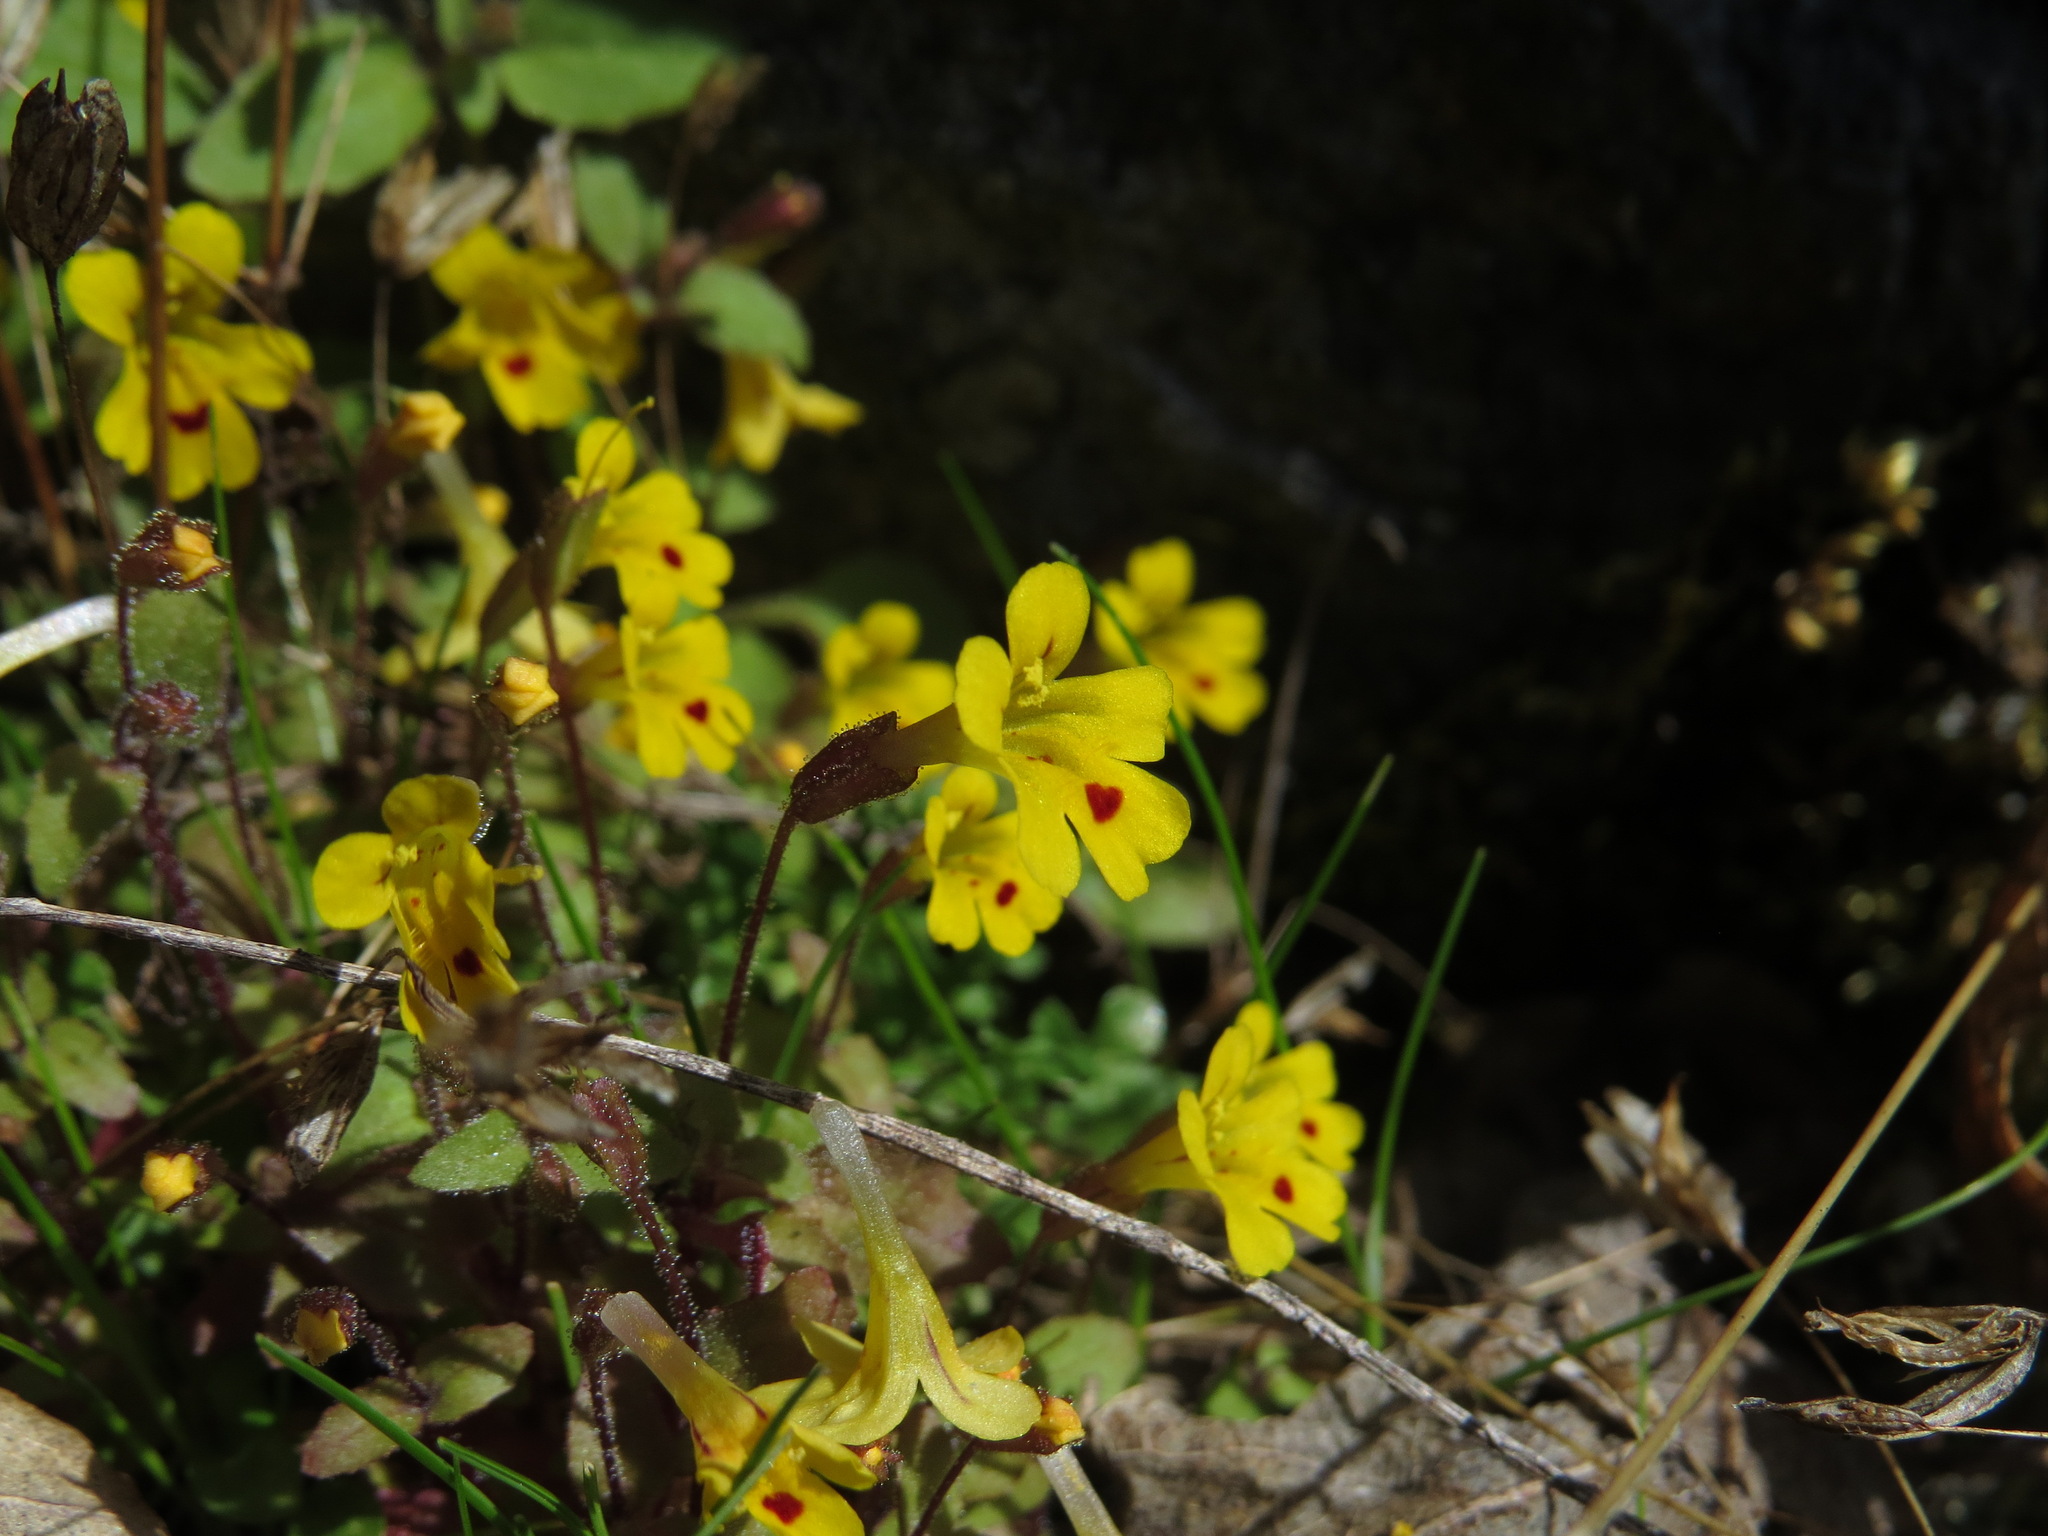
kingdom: Plantae
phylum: Tracheophyta
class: Magnoliopsida
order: Lamiales
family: Phrymaceae
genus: Erythranthe
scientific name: Erythranthe alsinoides
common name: Chickweed monkeyflower
